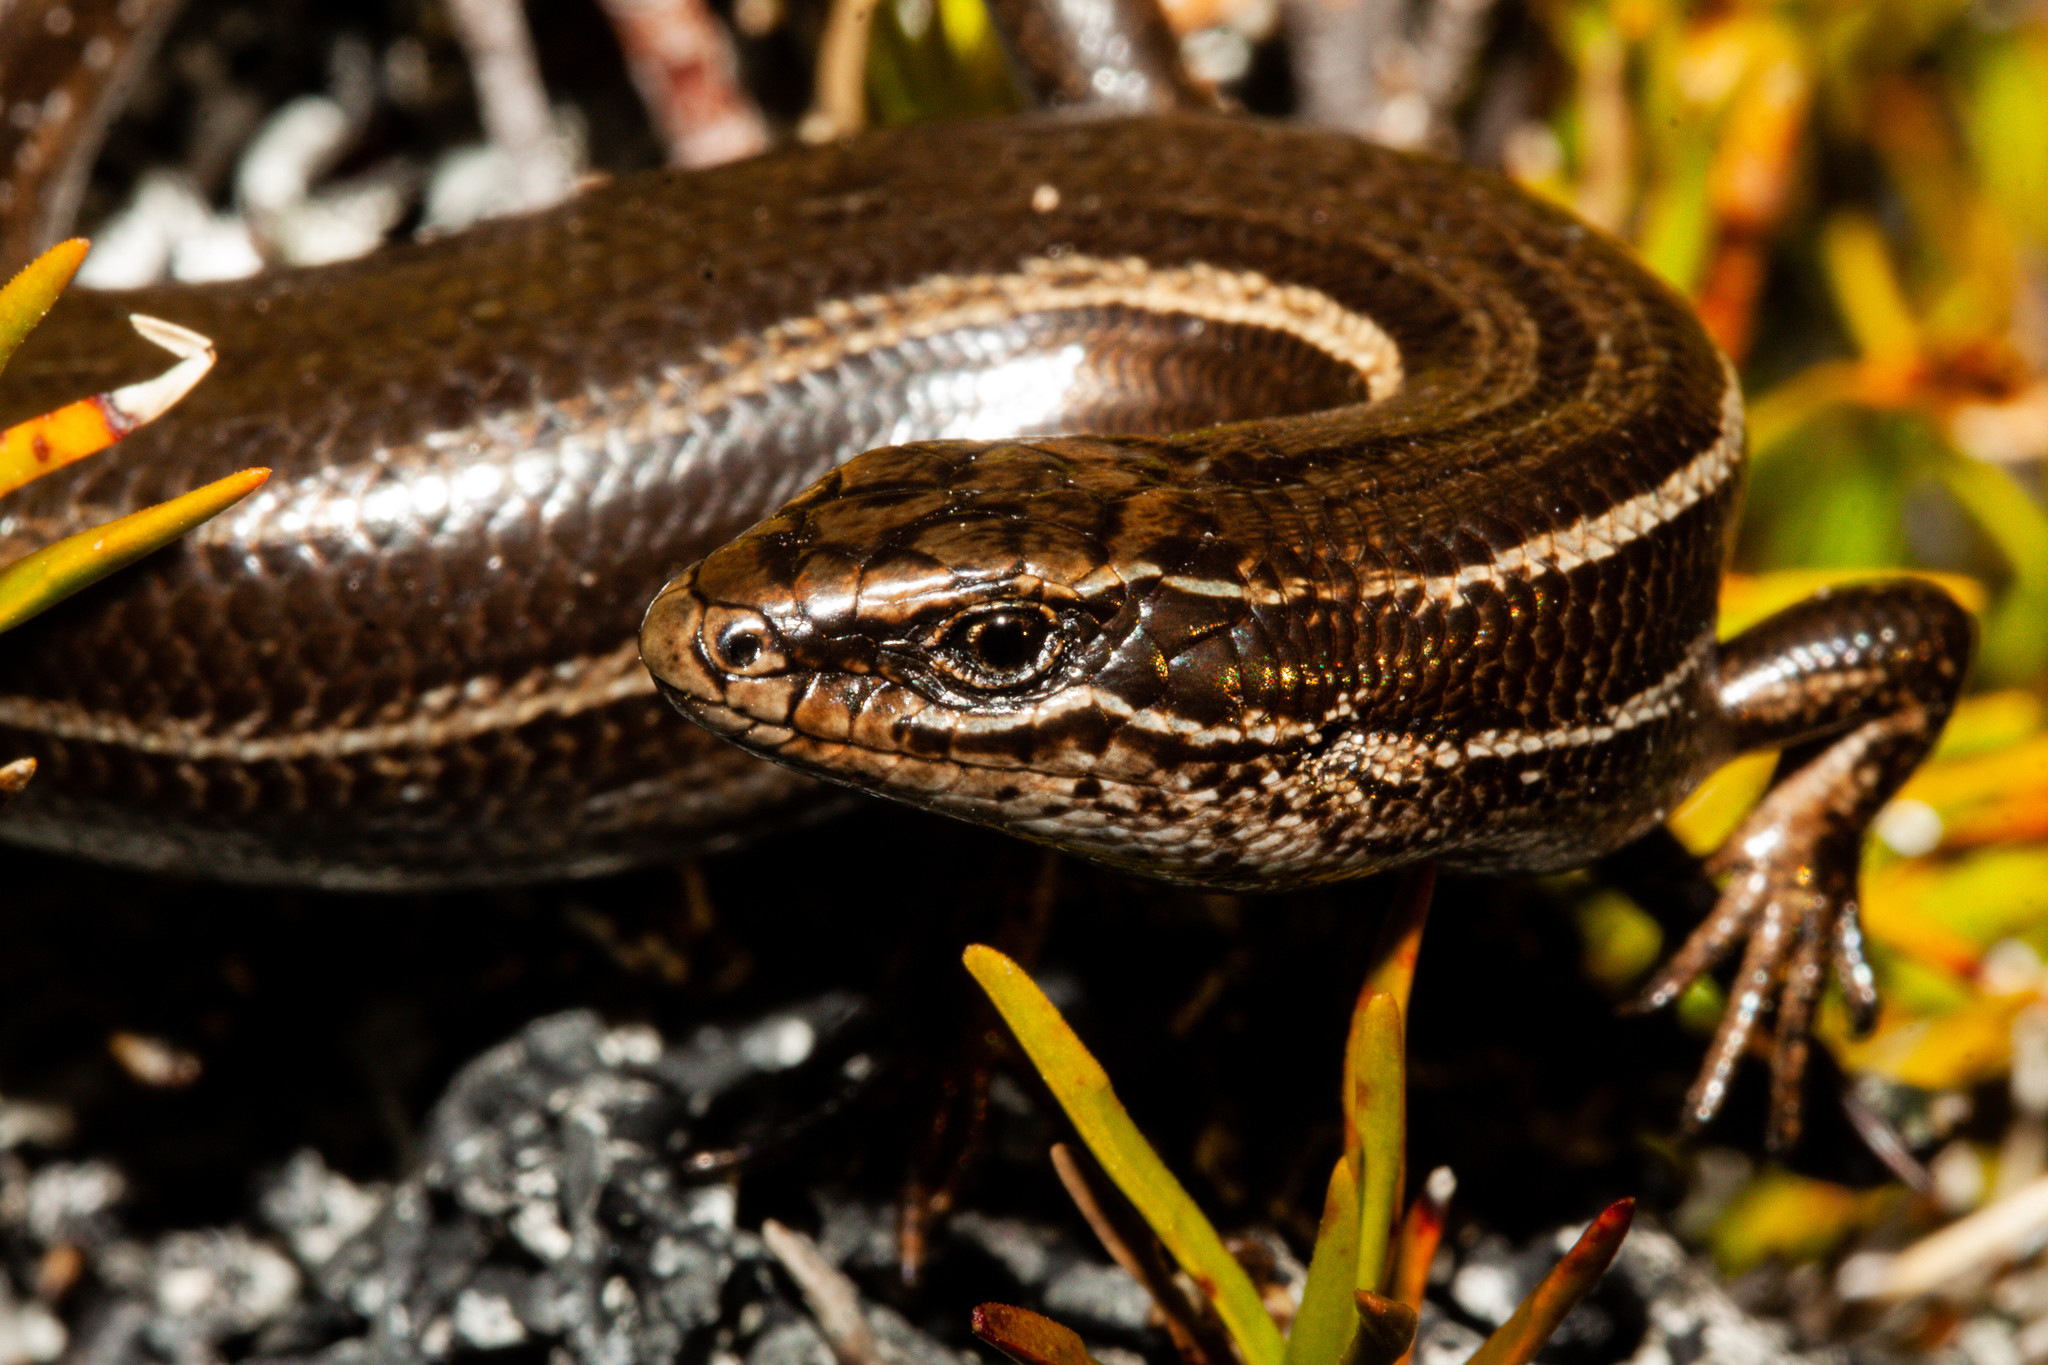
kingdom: Animalia
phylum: Chordata
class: Squamata
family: Scincidae
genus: Oligosoma
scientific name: Oligosoma toka
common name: Nevis skink
